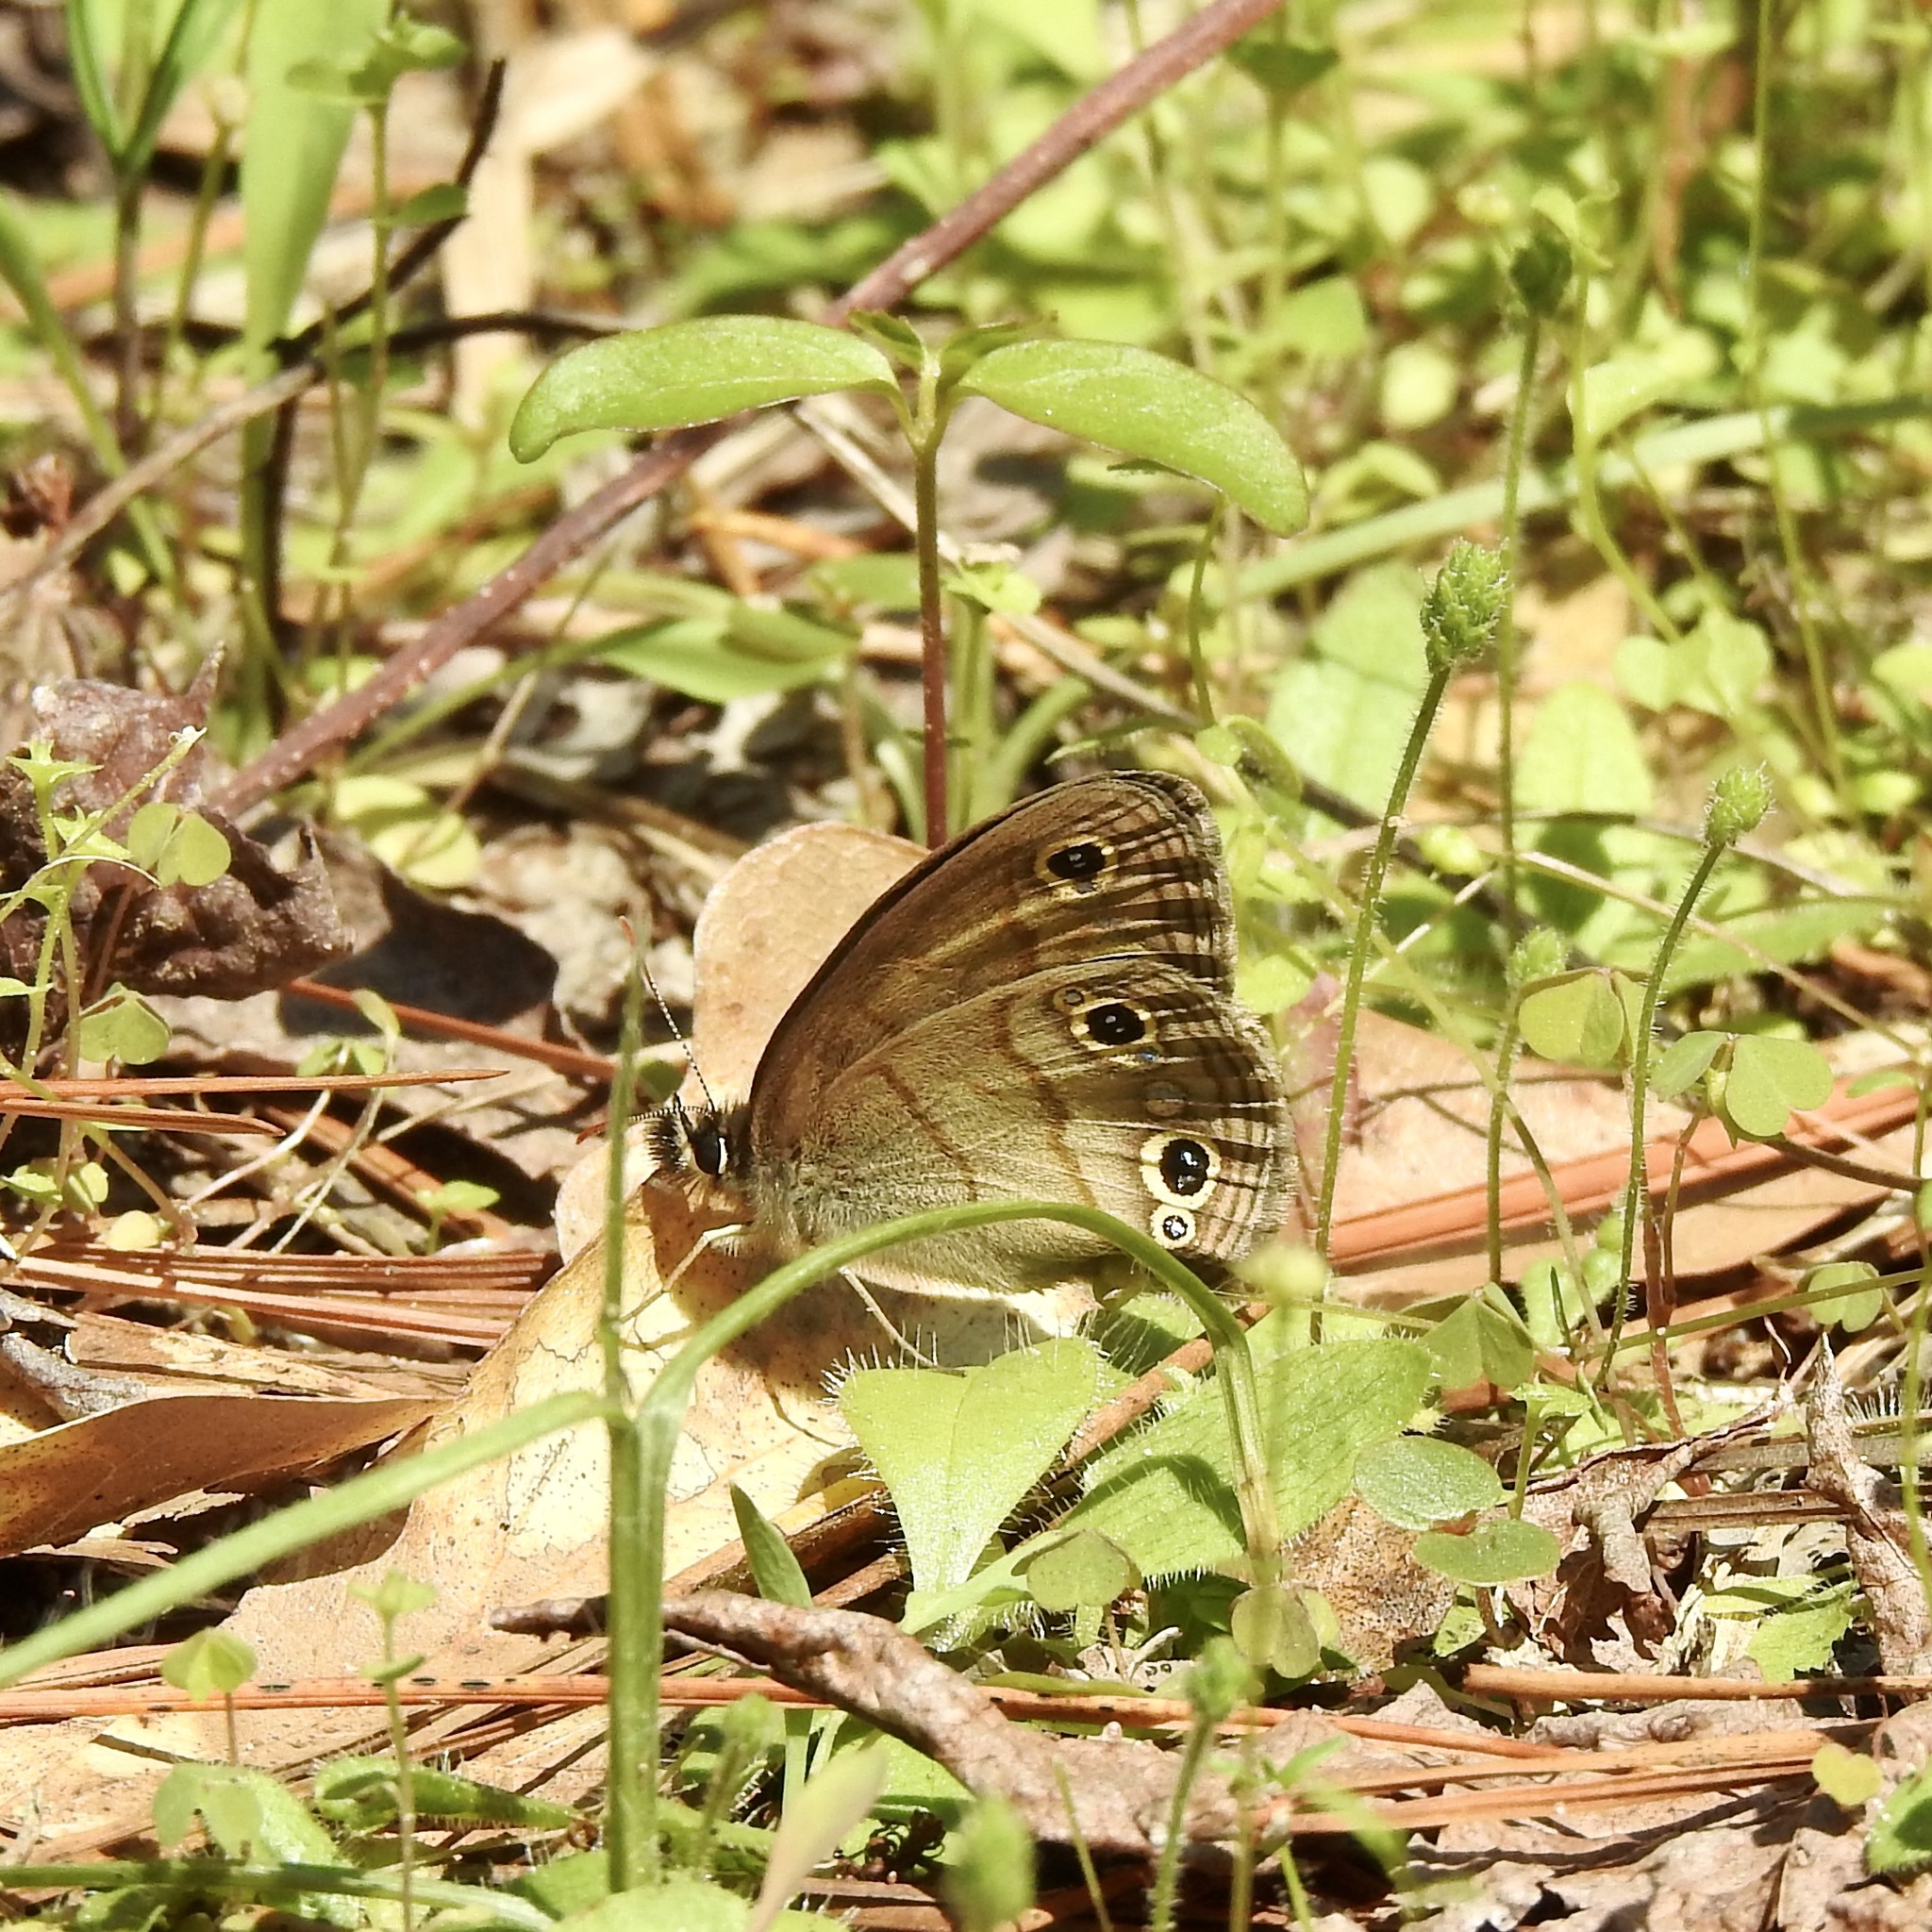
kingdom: Animalia
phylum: Arthropoda
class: Insecta
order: Lepidoptera
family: Nymphalidae
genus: Euptychia
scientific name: Euptychia cymela
